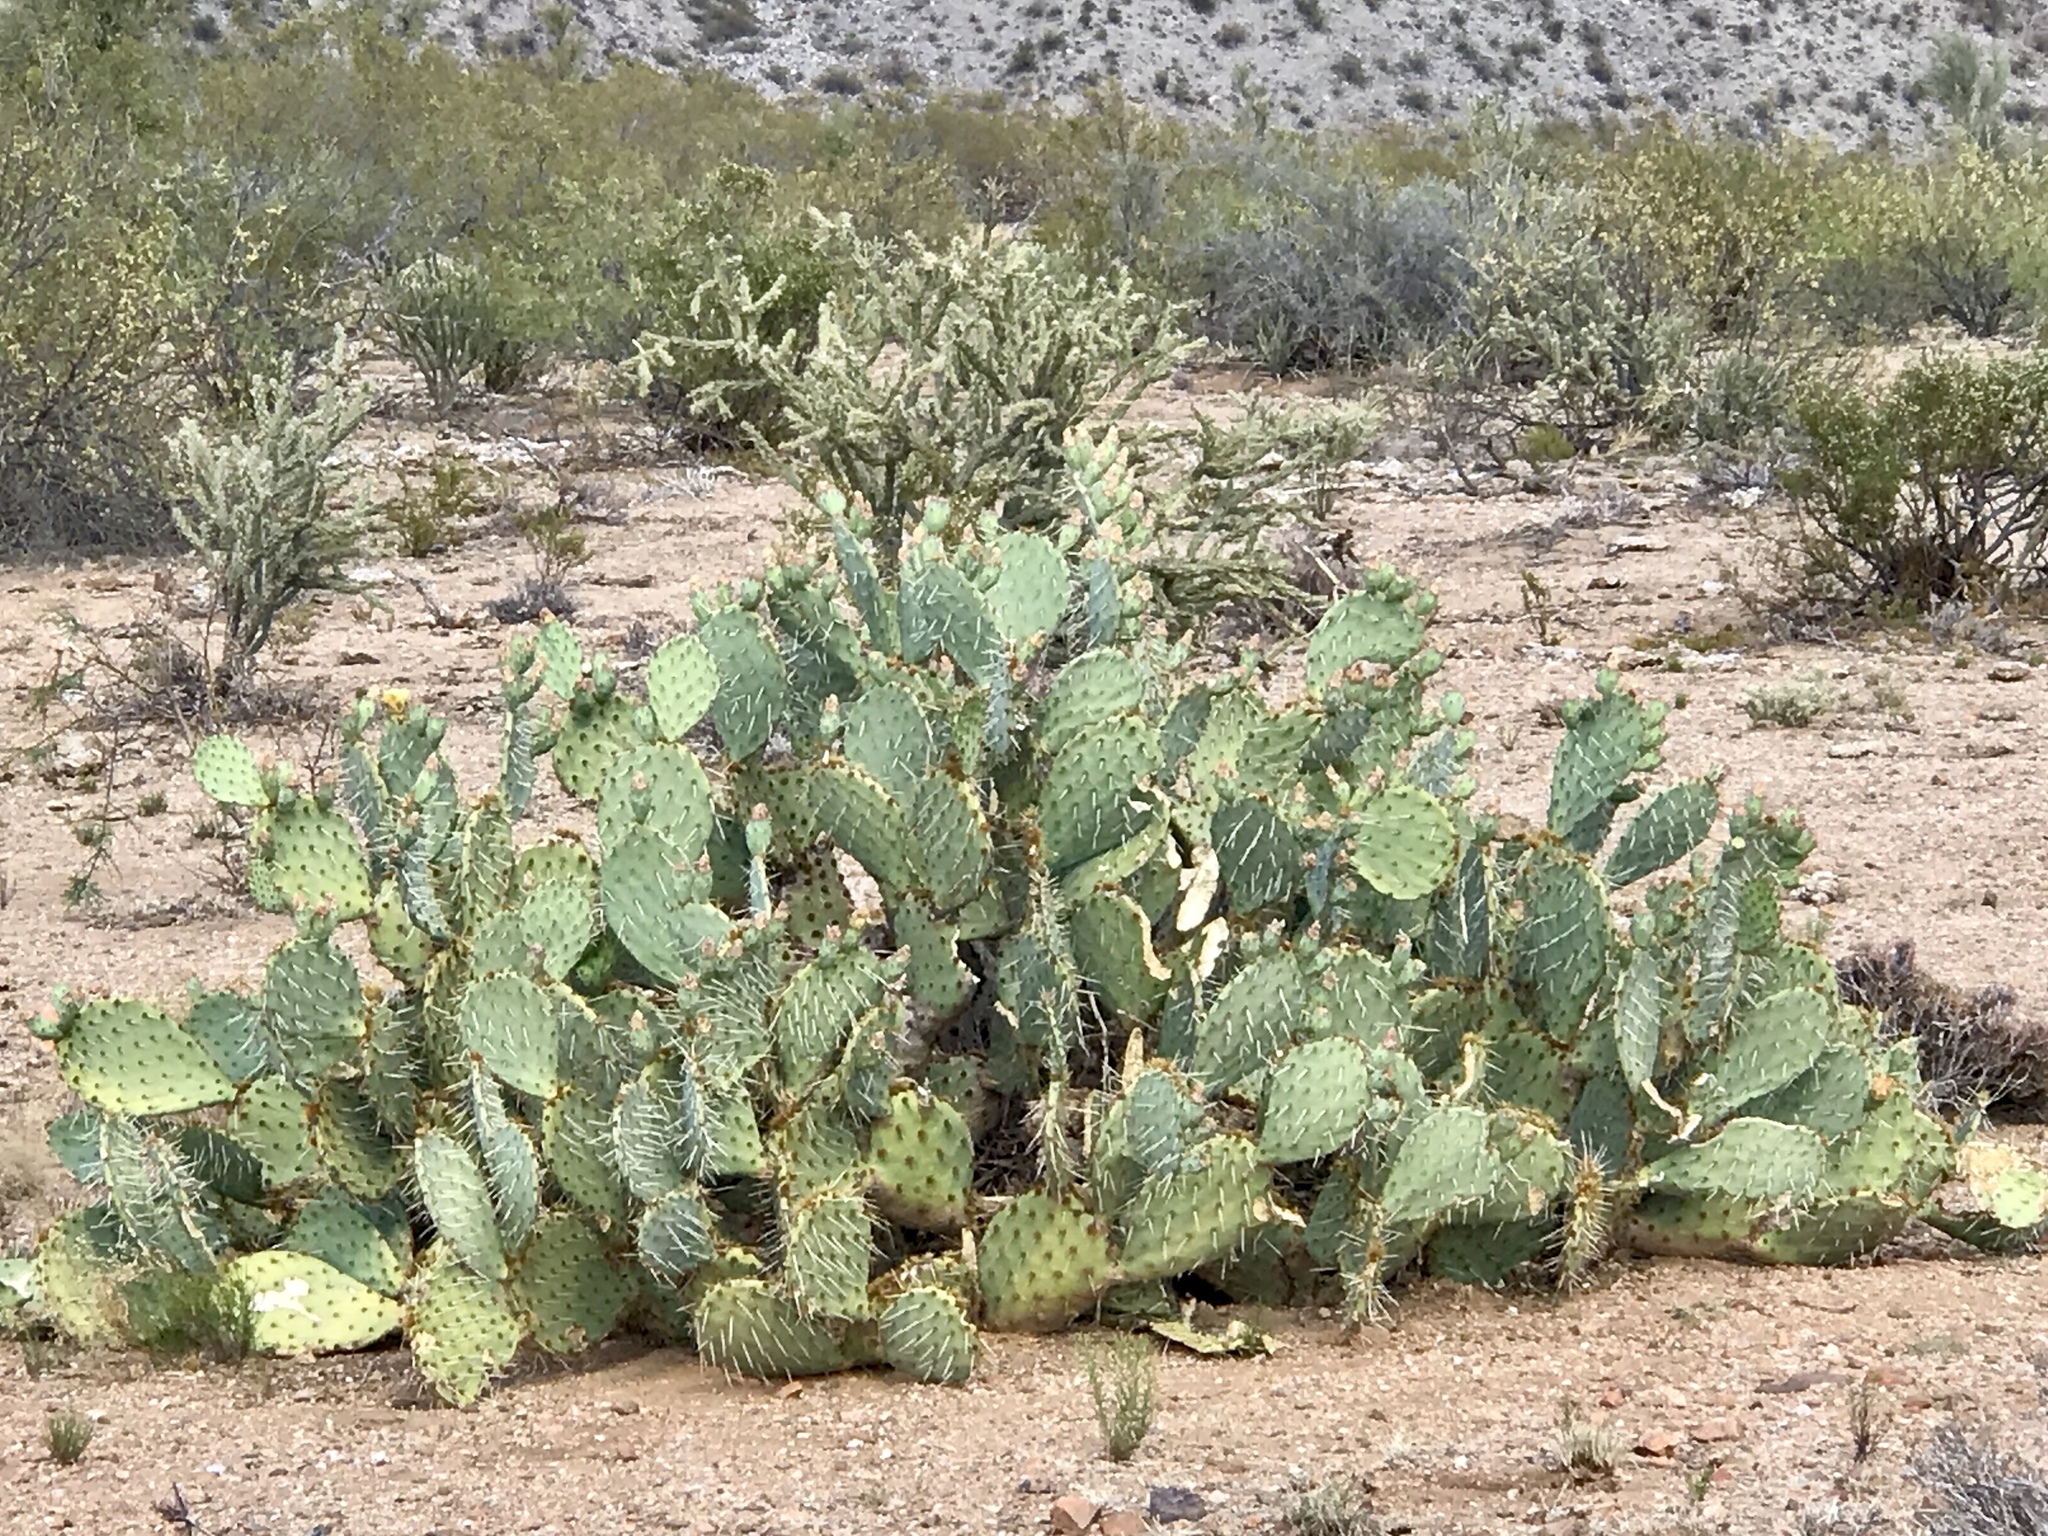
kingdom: Plantae
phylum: Tracheophyta
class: Magnoliopsida
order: Caryophyllales
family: Cactaceae
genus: Opuntia
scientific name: Opuntia engelmannii
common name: Cactus-apple
